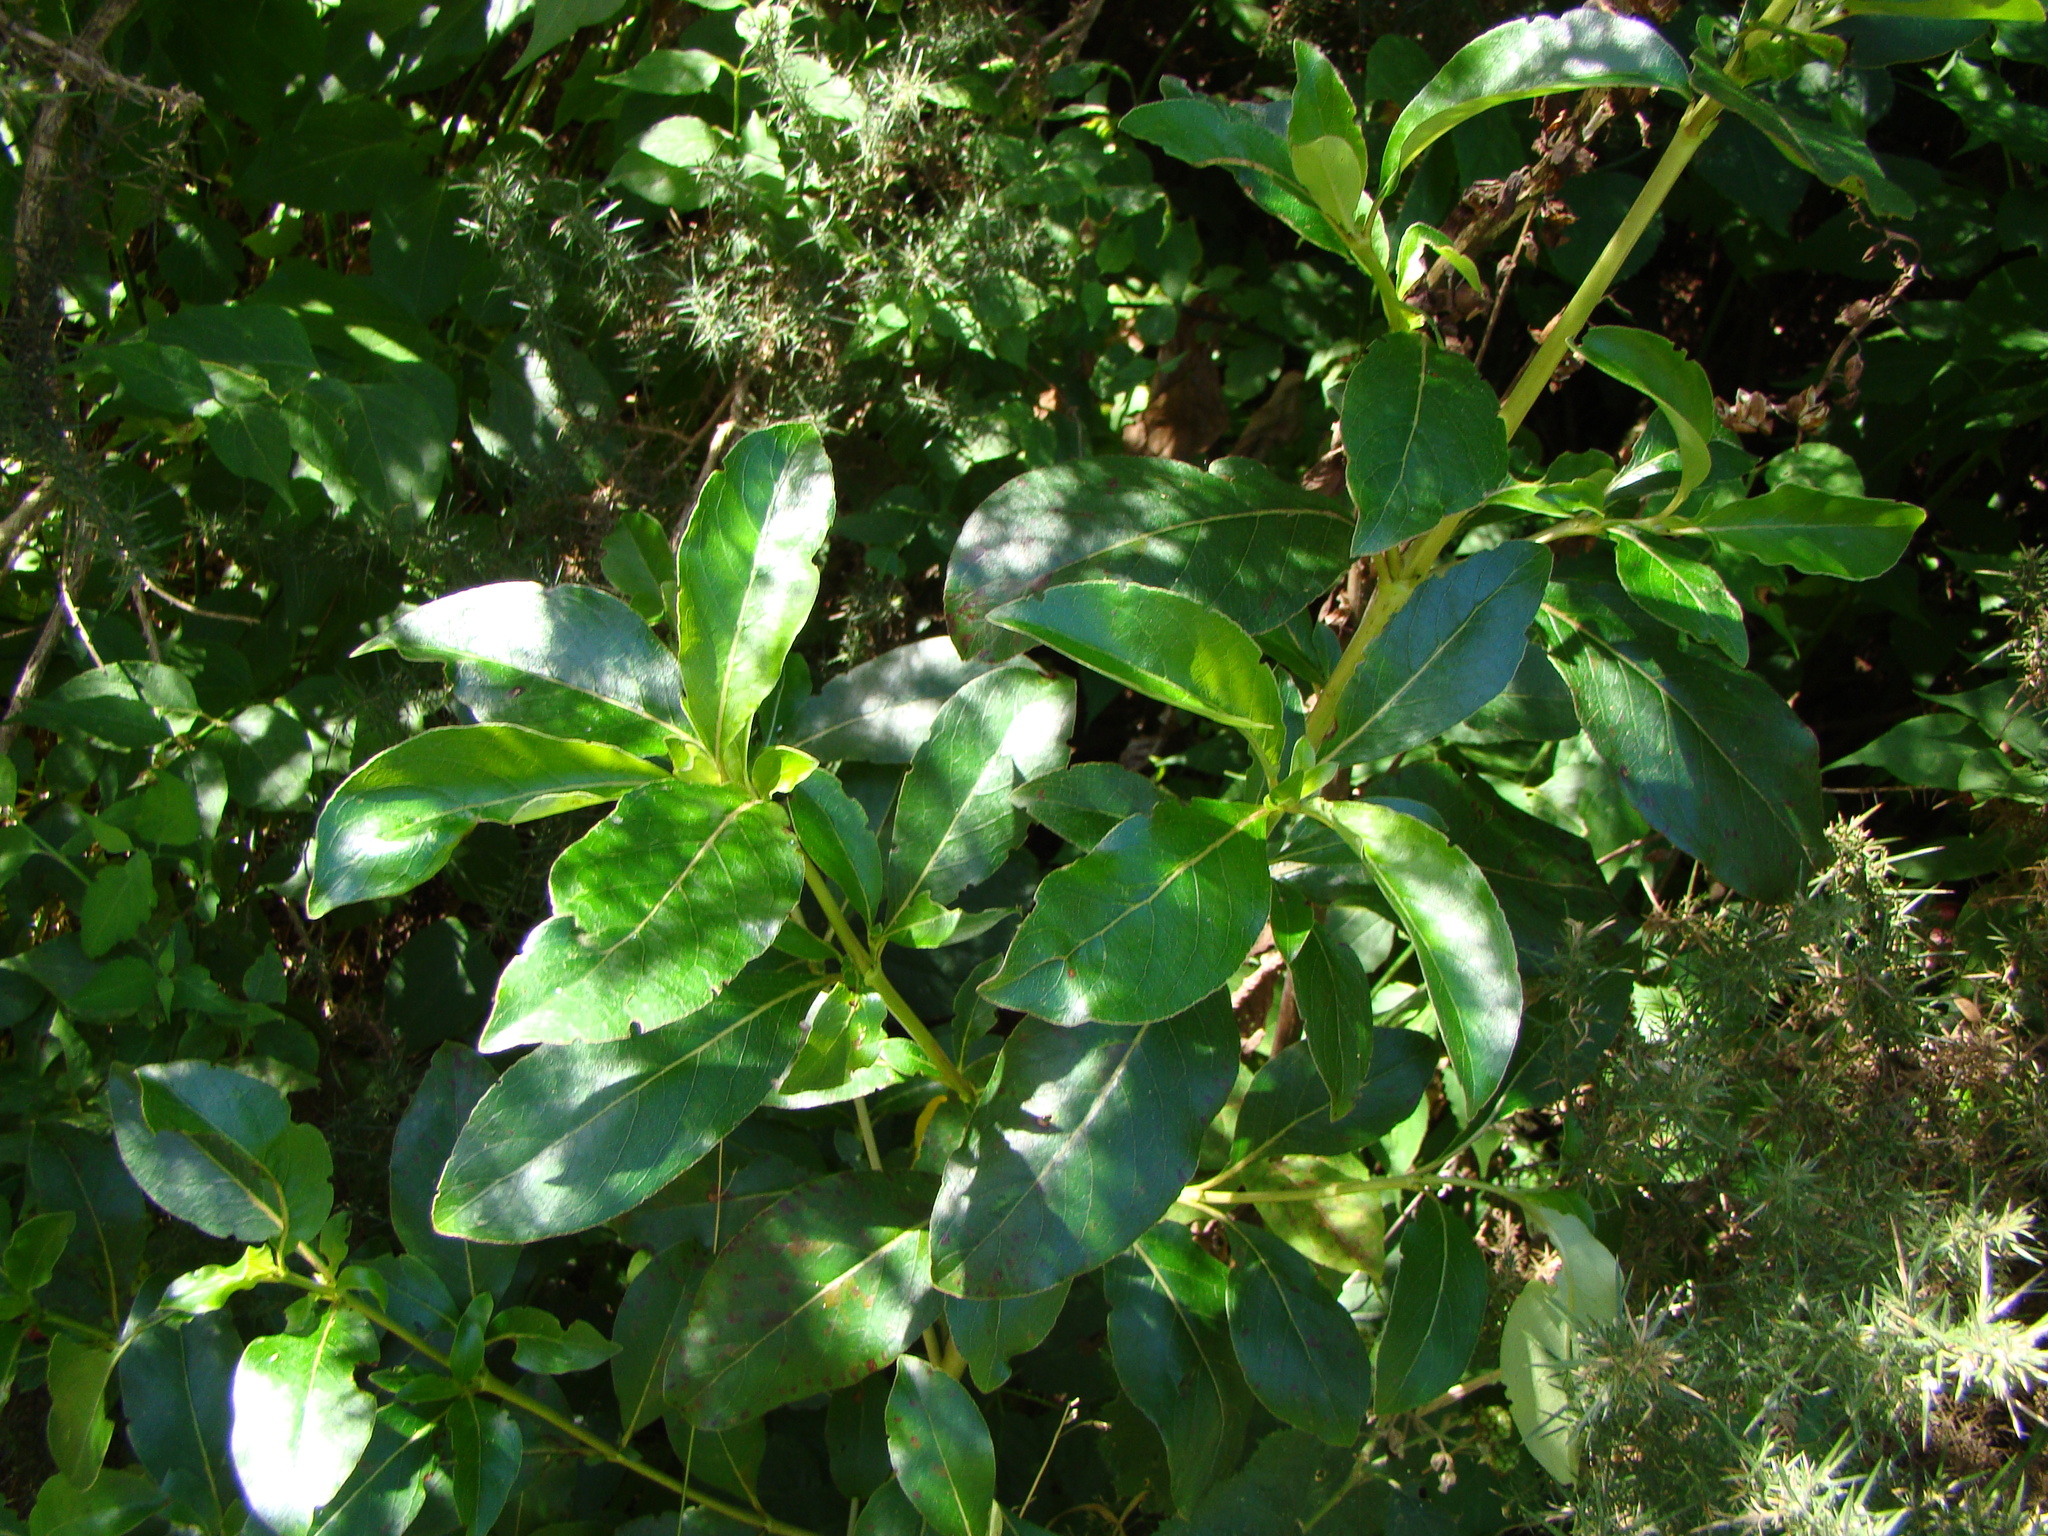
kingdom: Plantae
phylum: Tracheophyta
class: Magnoliopsida
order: Gentianales
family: Rubiaceae
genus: Coprosma
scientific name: Coprosma robusta
